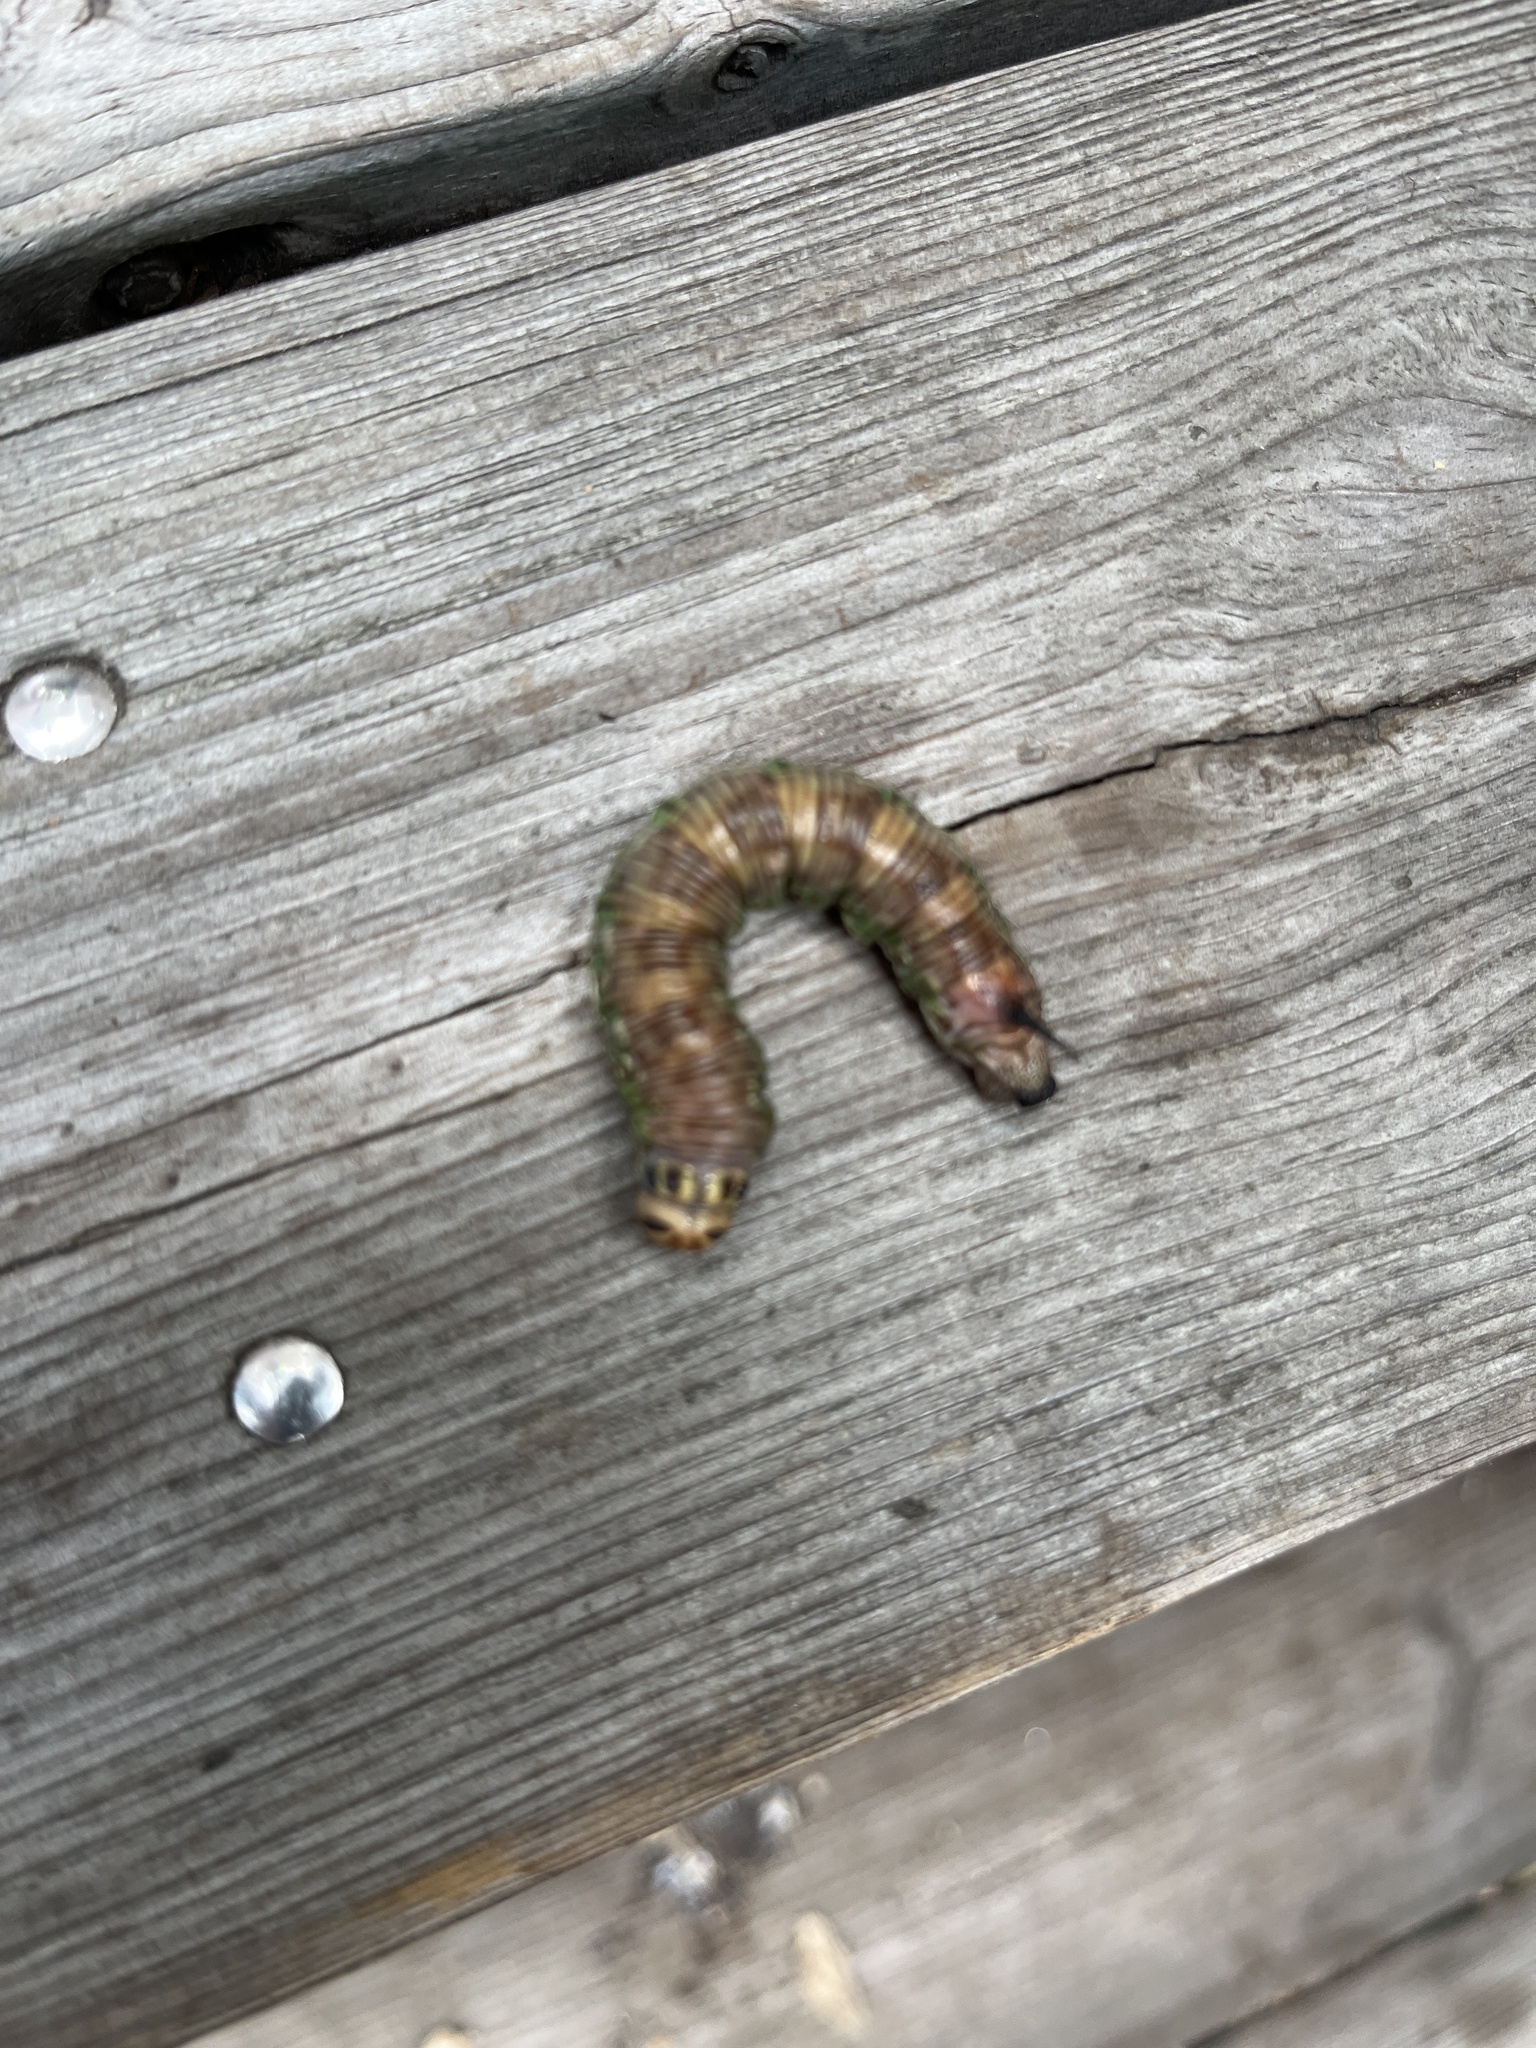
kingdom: Animalia
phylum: Arthropoda
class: Insecta
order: Lepidoptera
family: Sphingidae
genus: Sphinx
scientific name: Sphinx pinastri
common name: Pine hawk-moth
